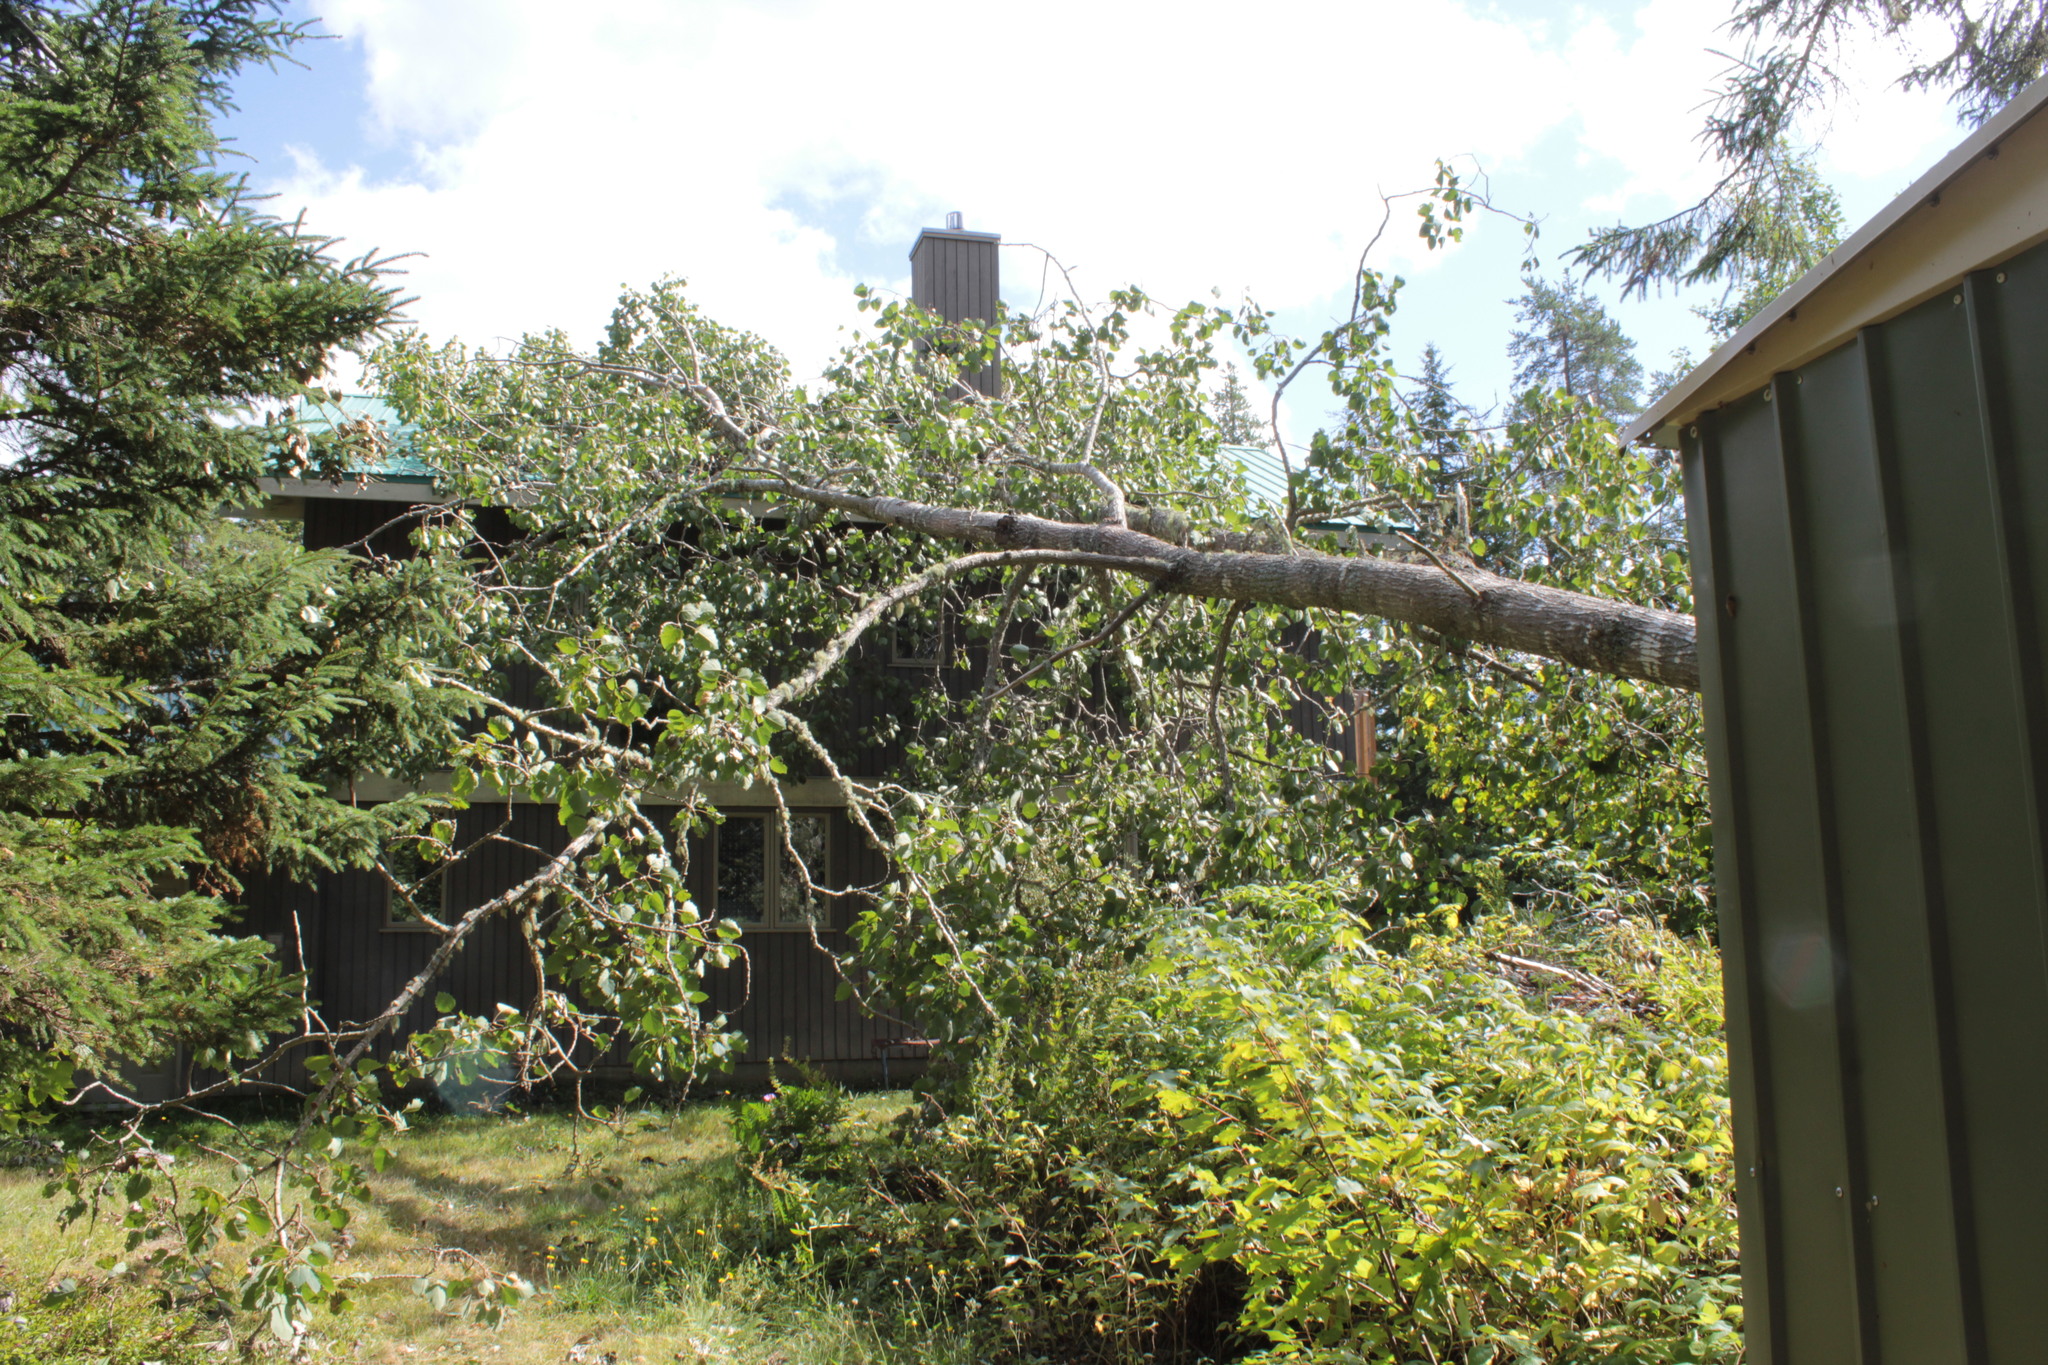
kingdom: Plantae
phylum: Tracheophyta
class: Magnoliopsida
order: Malpighiales
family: Salicaceae
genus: Populus
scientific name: Populus grandidentata
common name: Bigtooth aspen
